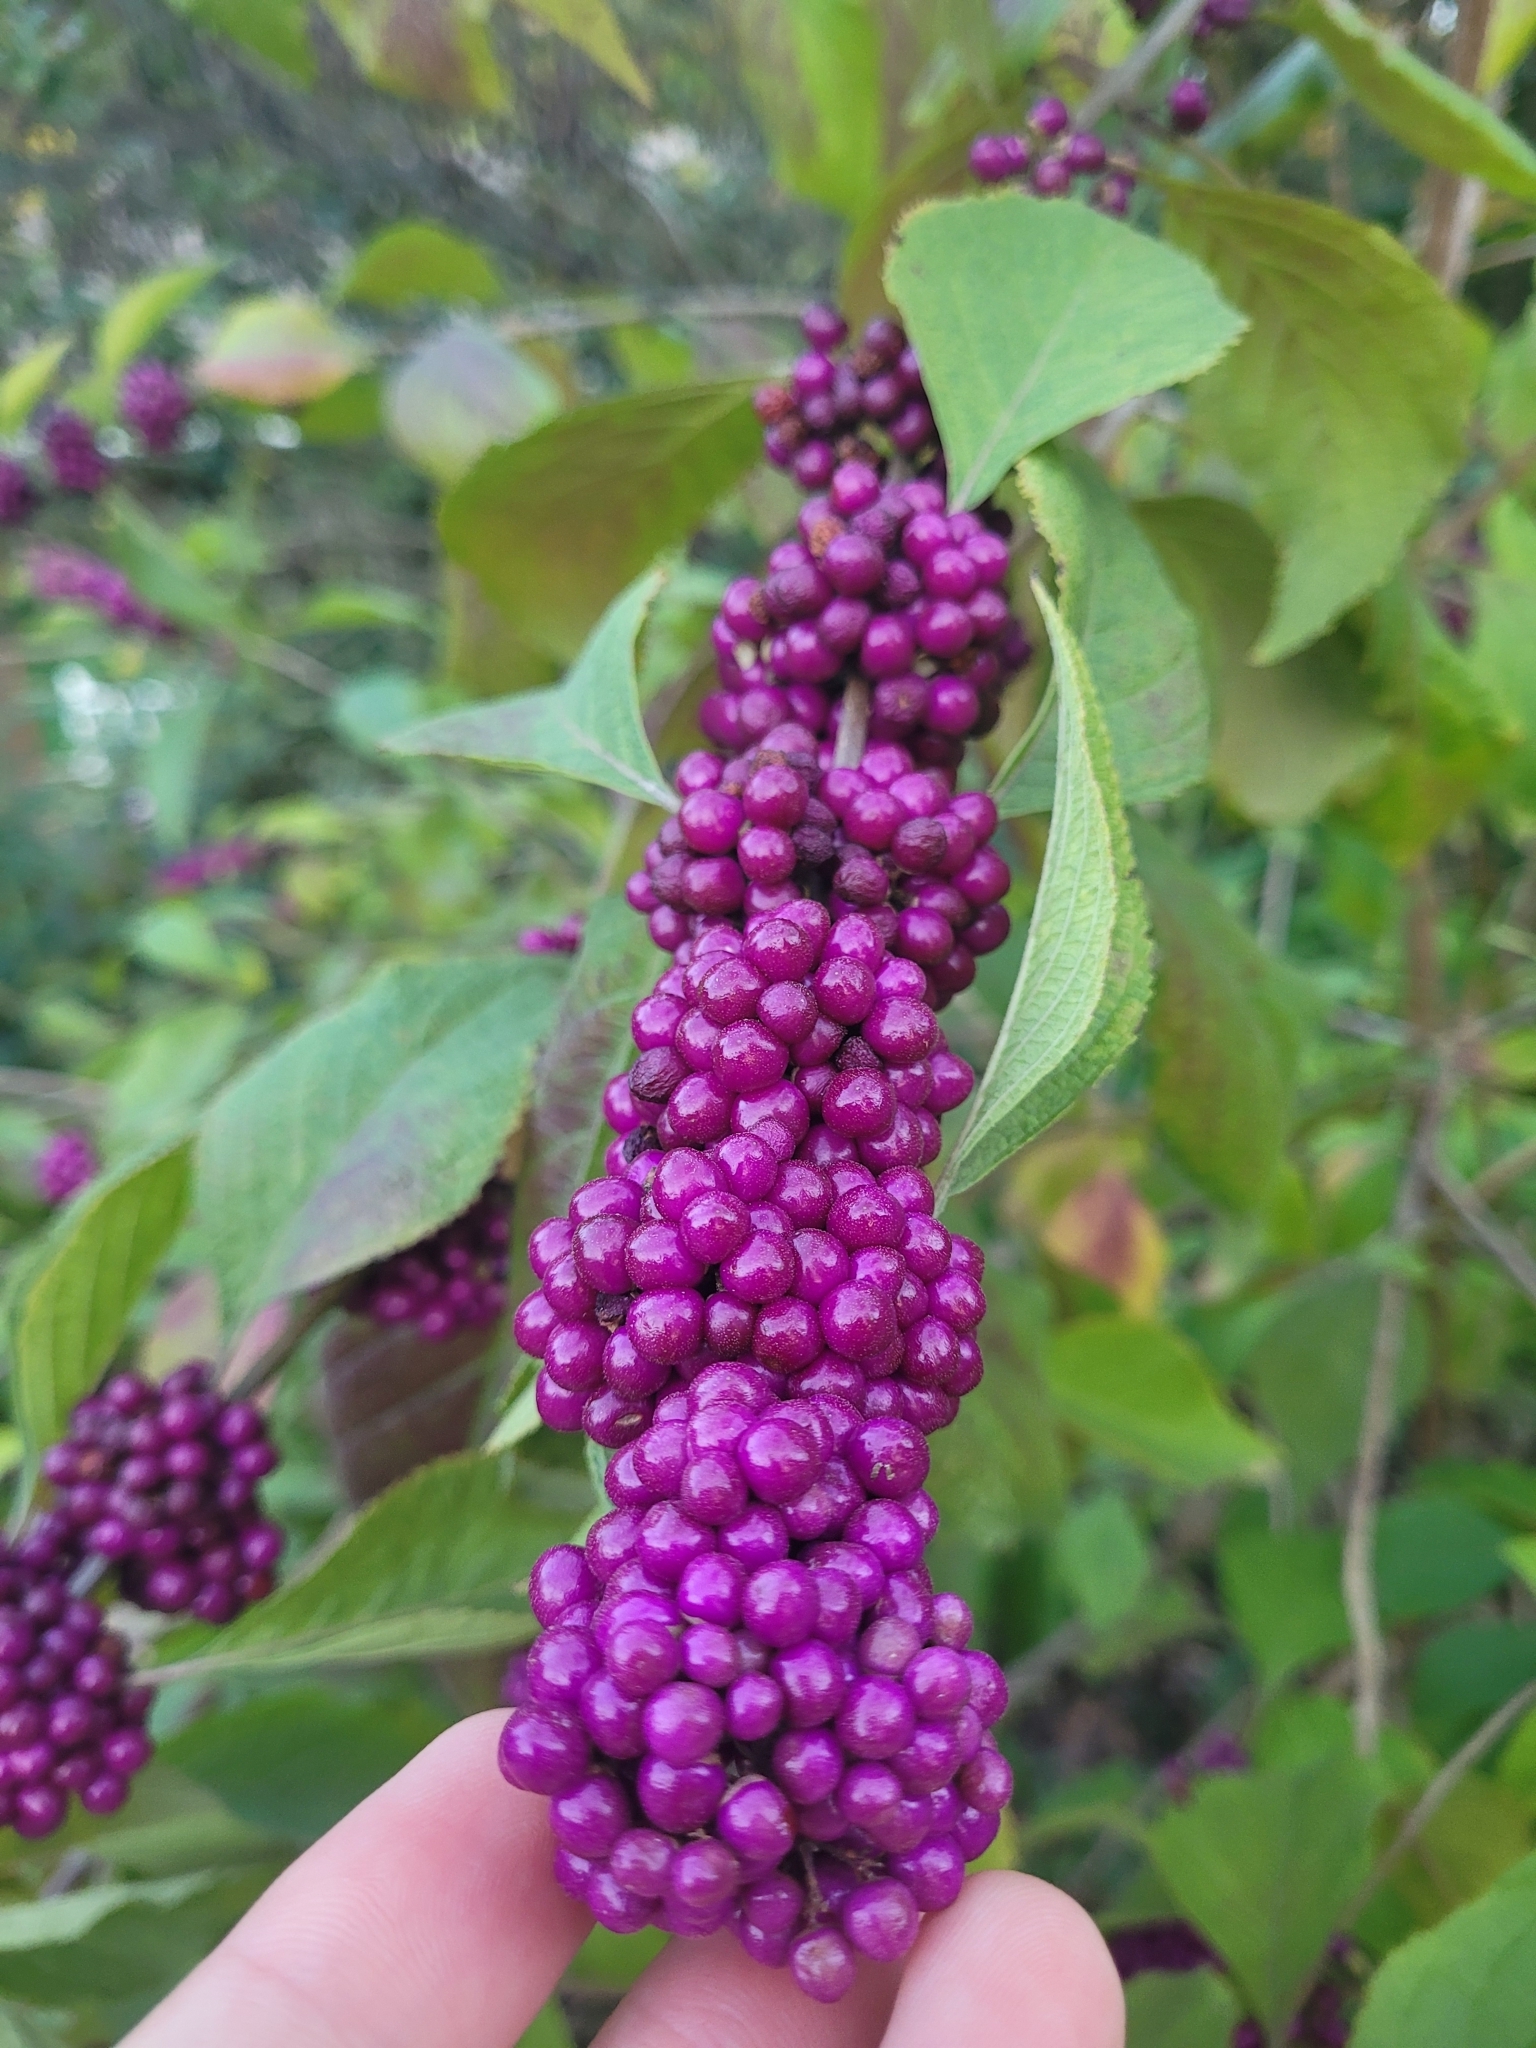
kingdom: Plantae
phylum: Tracheophyta
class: Magnoliopsida
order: Lamiales
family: Lamiaceae
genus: Callicarpa
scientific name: Callicarpa americana
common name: American beautyberry
